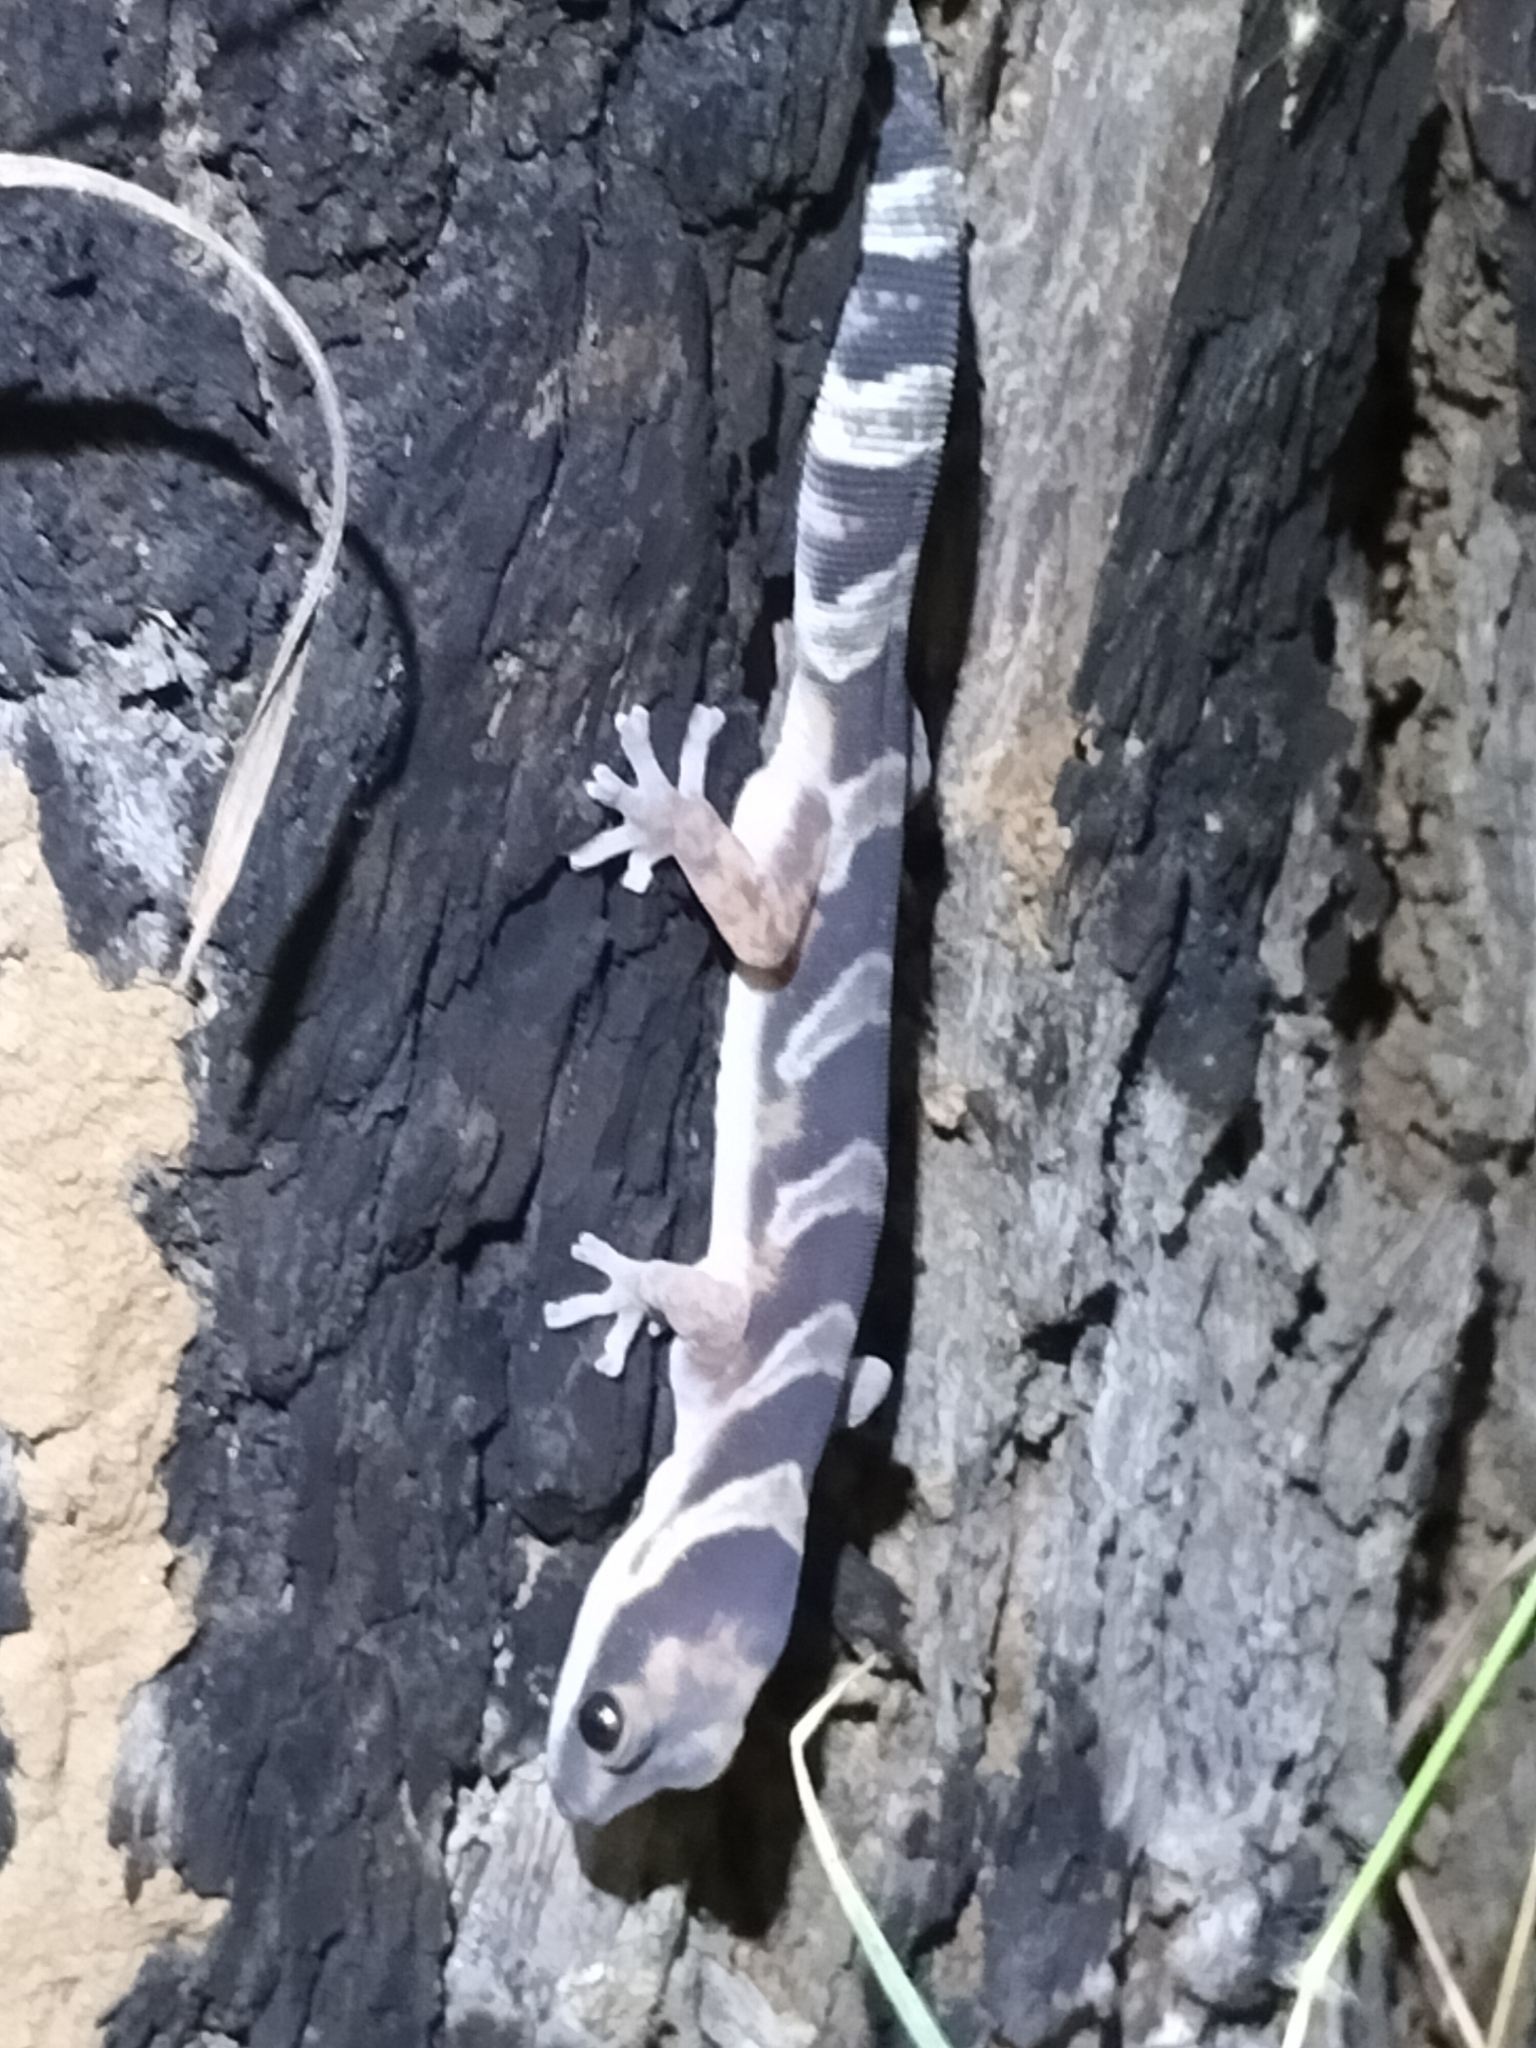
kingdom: Animalia
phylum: Chordata
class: Squamata
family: Diplodactylidae
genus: Oedura
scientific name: Oedura castelnaui
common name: Northern velvet gecko
